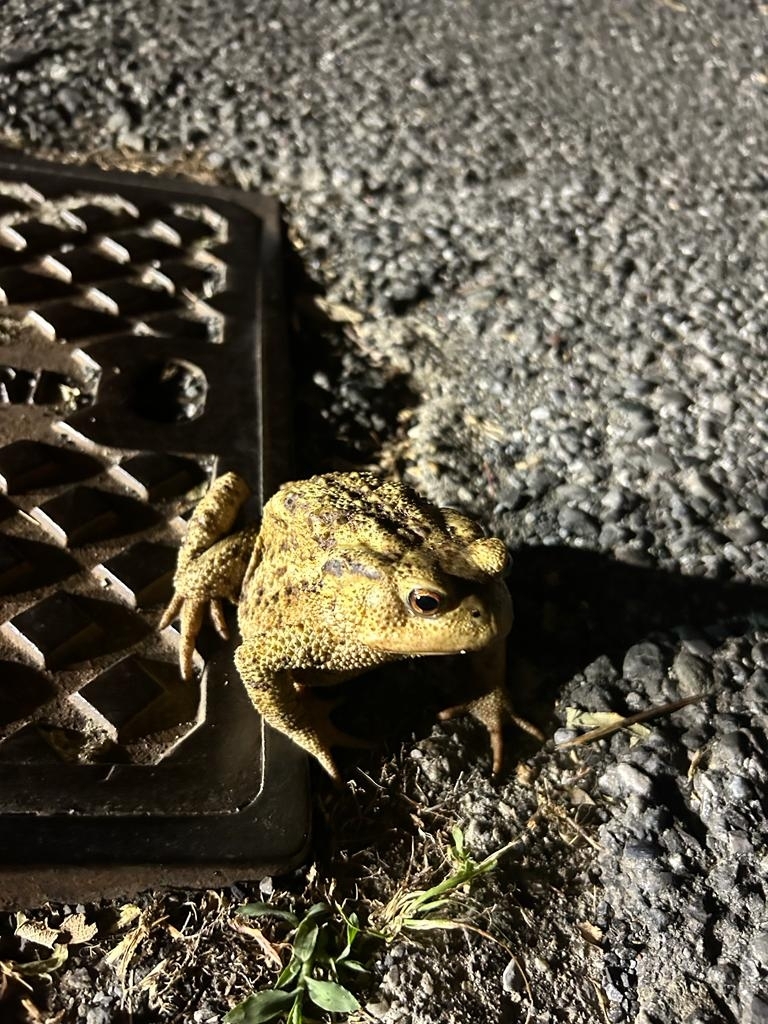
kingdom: Animalia
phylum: Chordata
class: Amphibia
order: Anura
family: Bufonidae
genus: Bufo
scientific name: Bufo bufo
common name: Common toad
